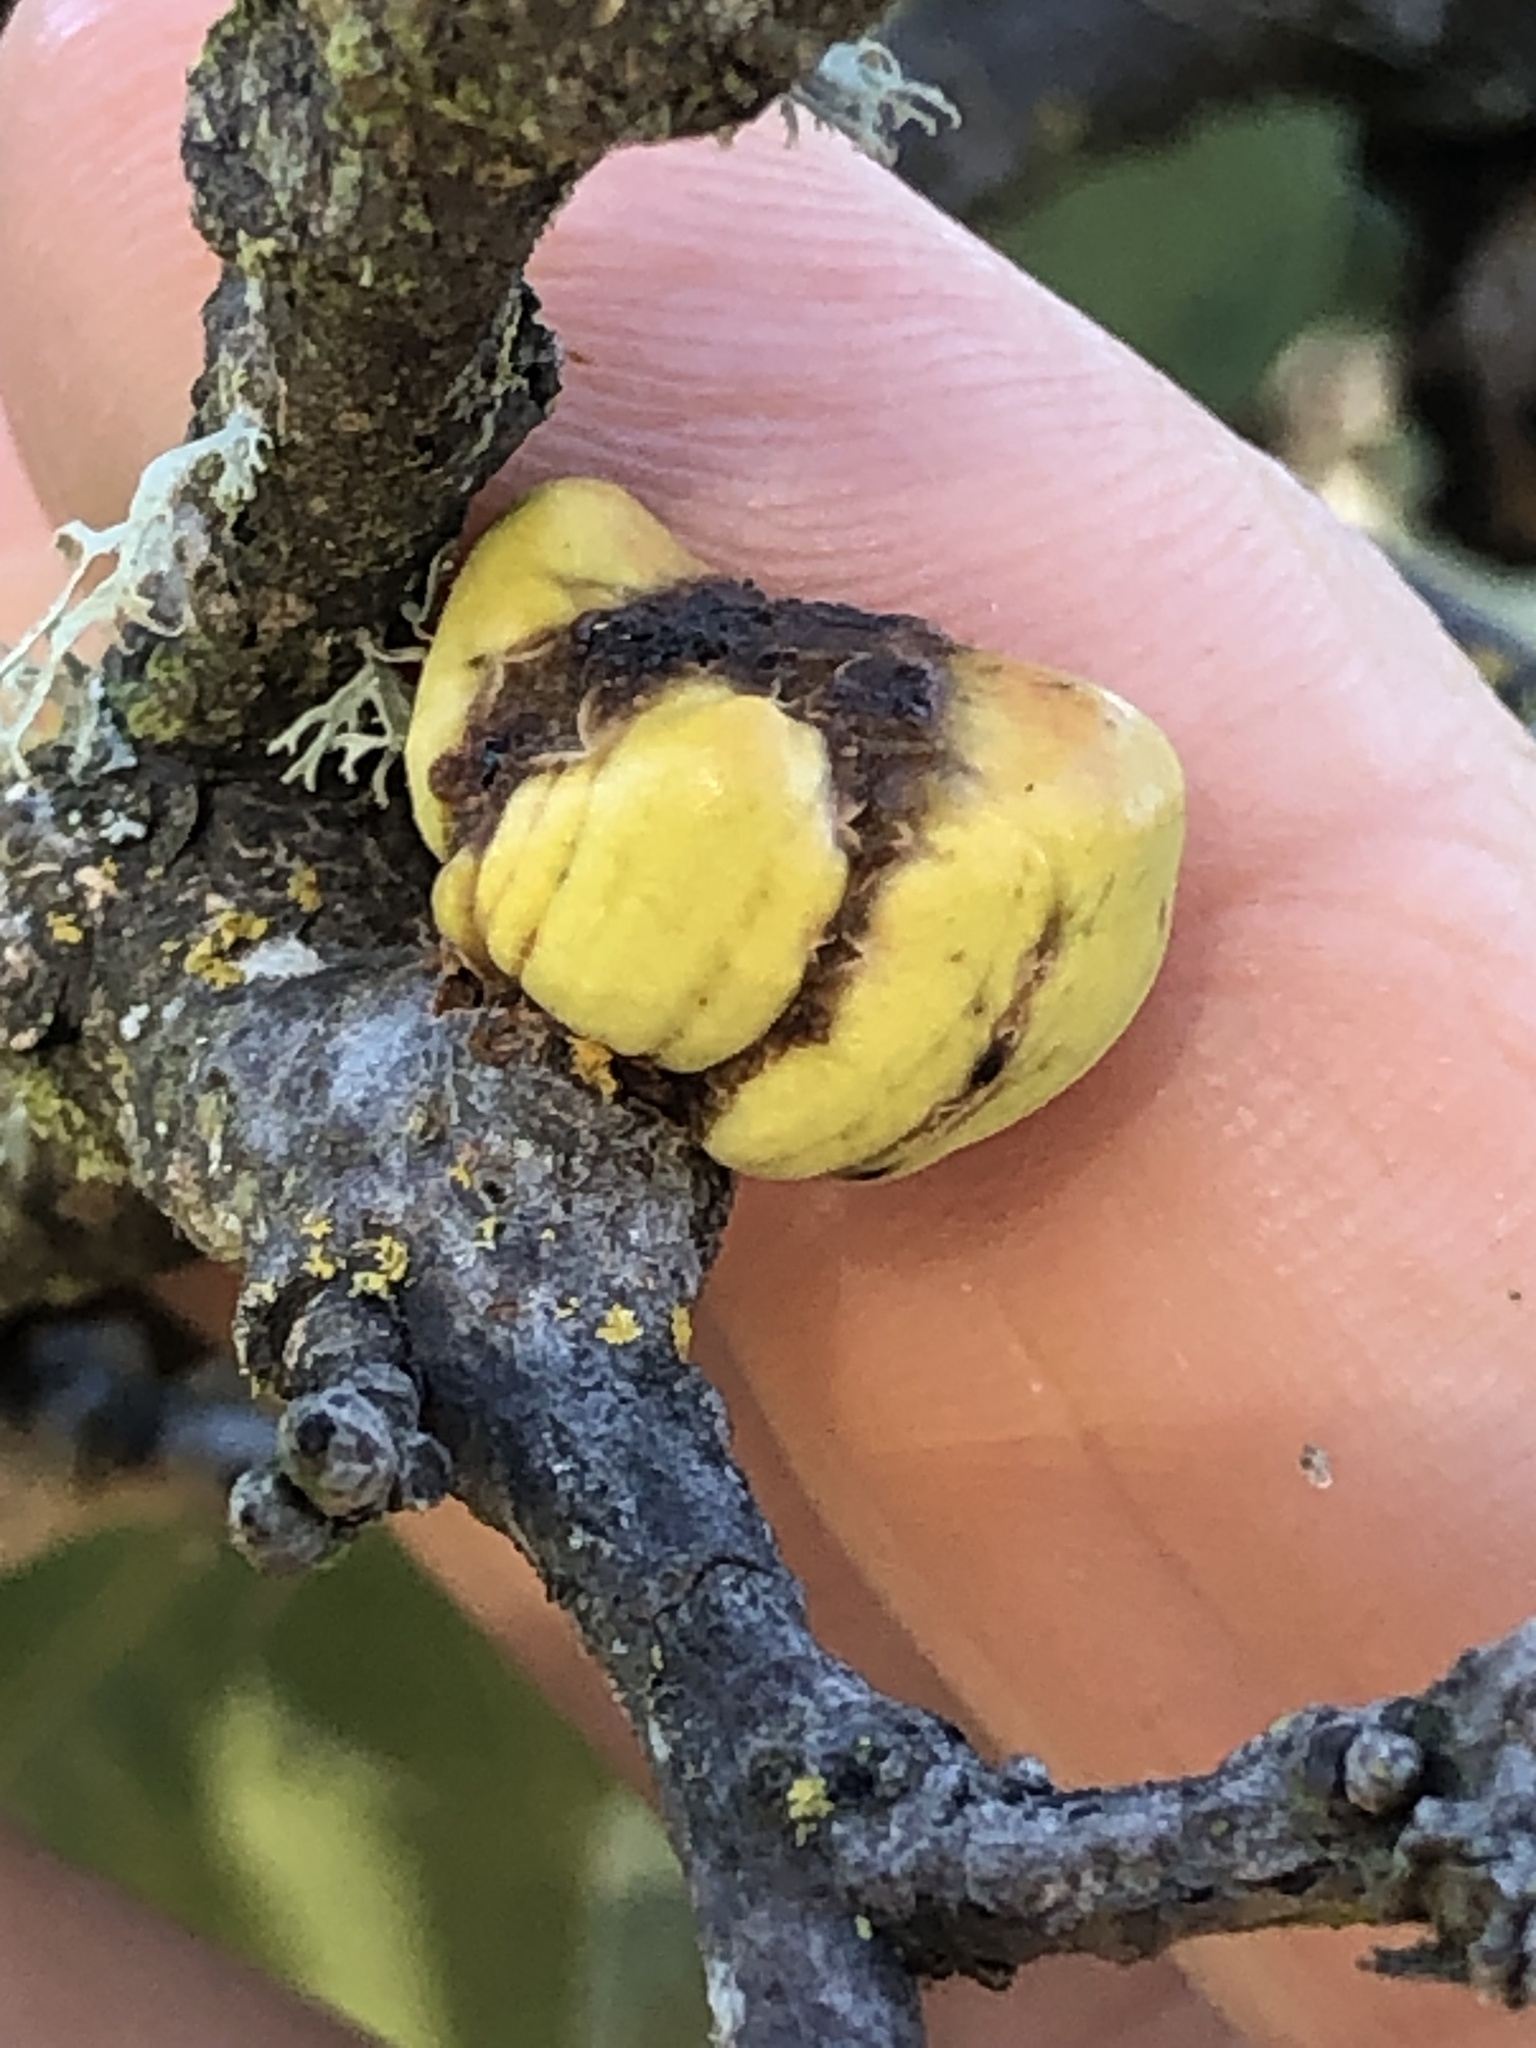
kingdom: Animalia
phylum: Arthropoda
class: Insecta
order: Hymenoptera
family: Cynipidae
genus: Andricus
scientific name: Andricus quercuscalifornicus
